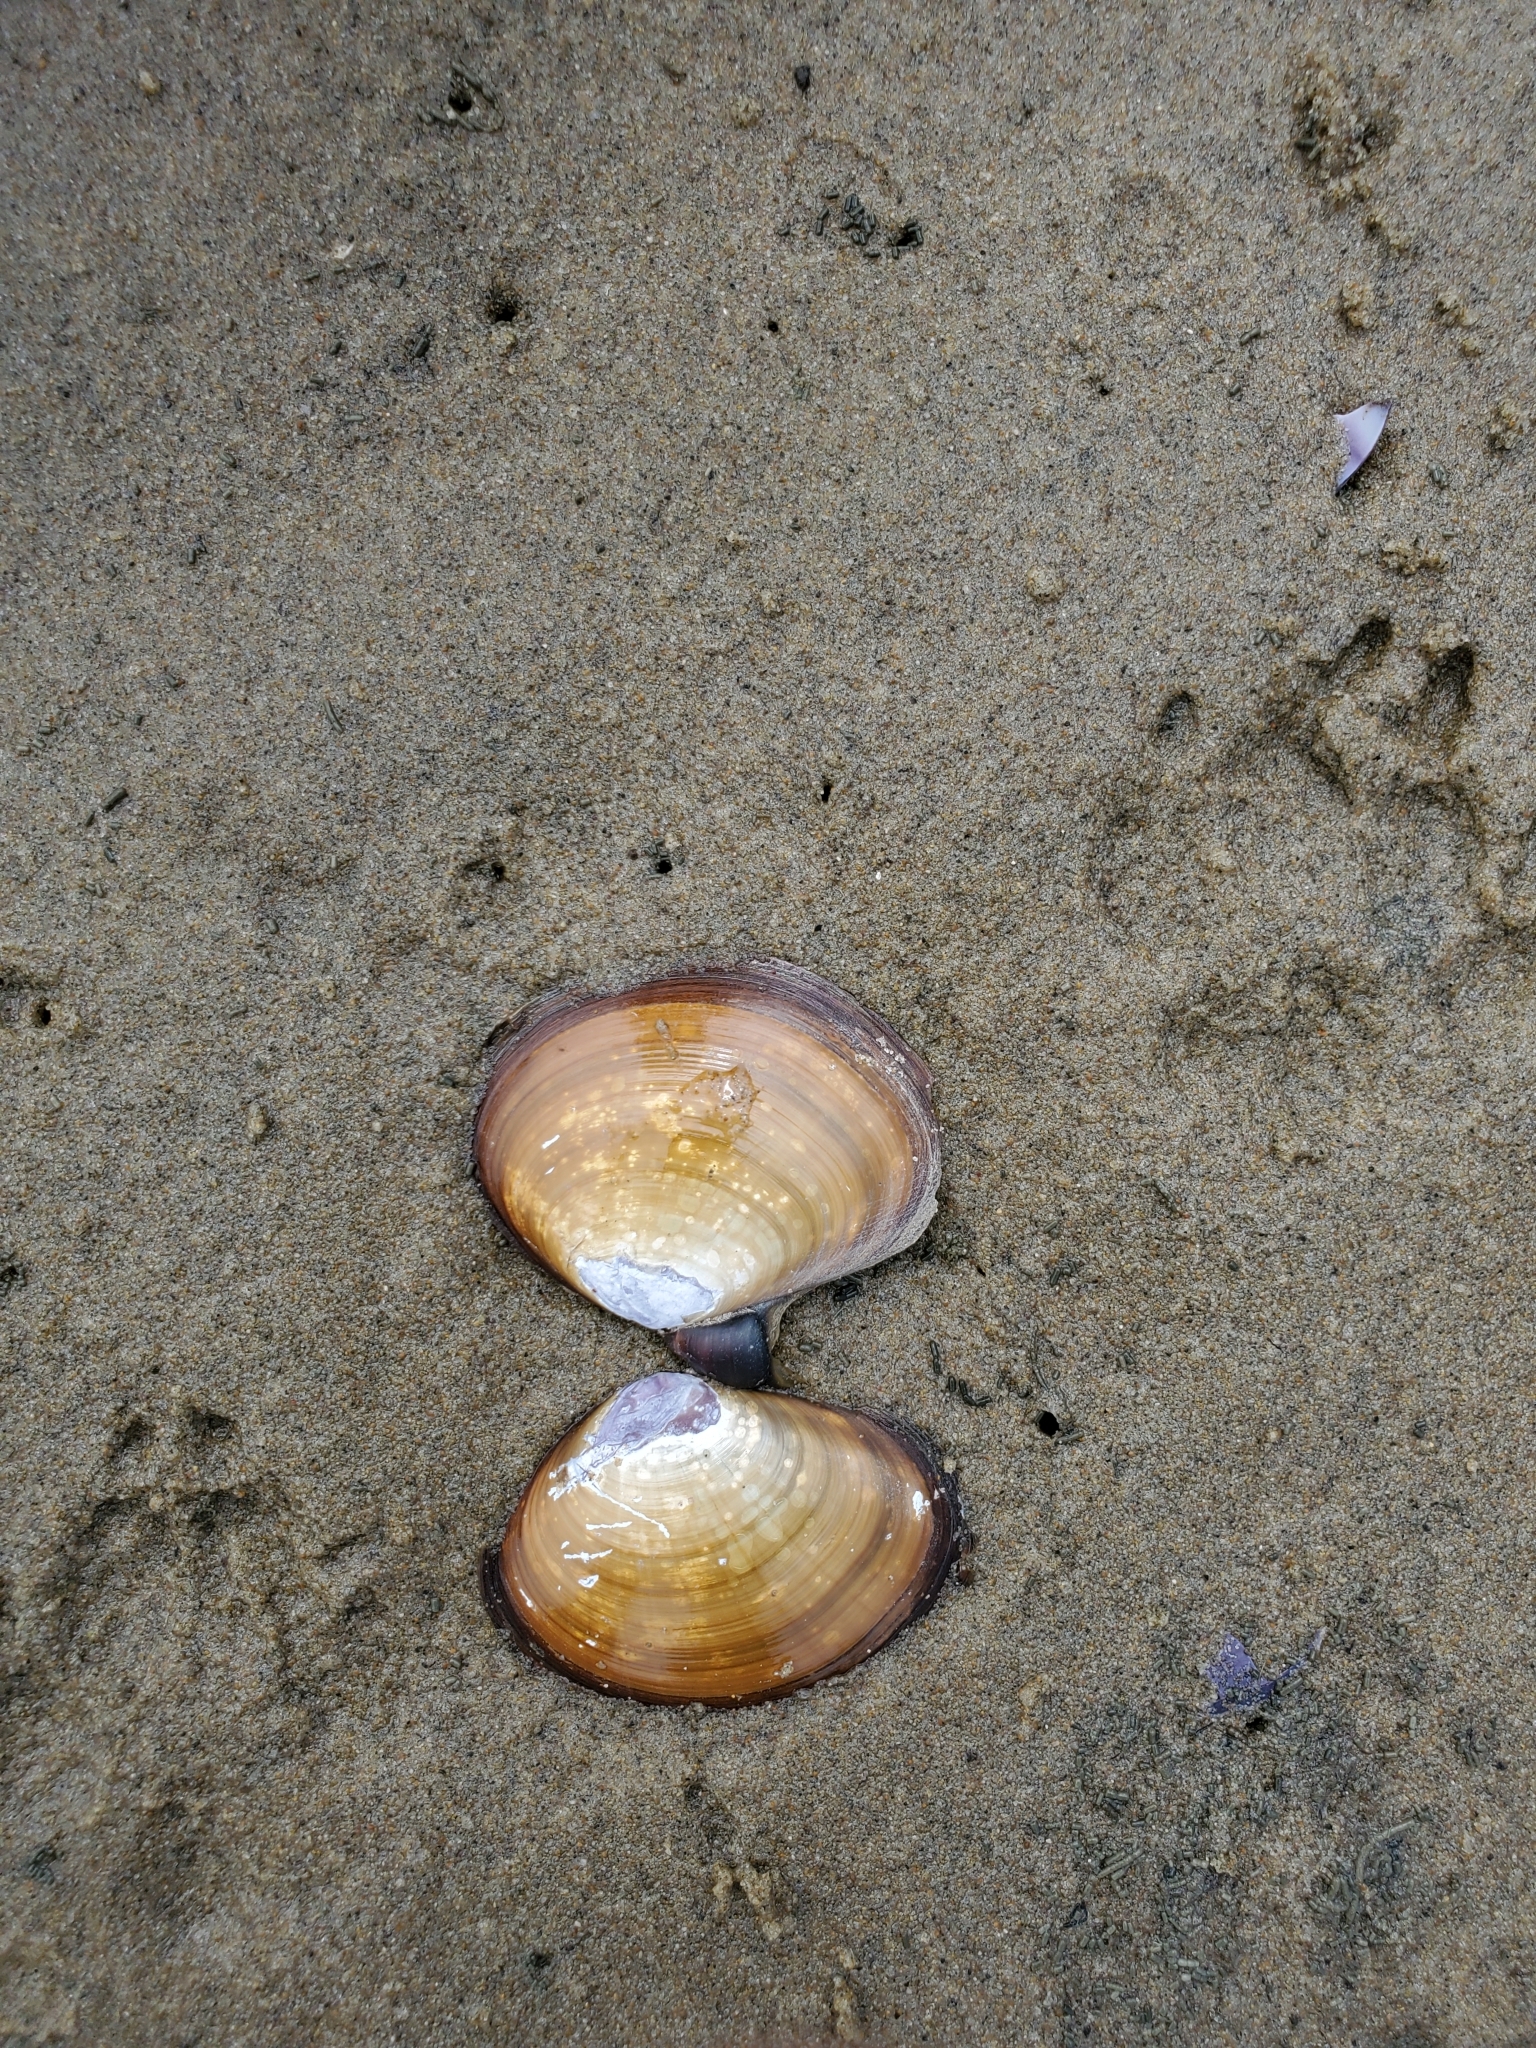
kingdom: Animalia
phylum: Mollusca
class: Bivalvia
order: Cardiida
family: Psammobiidae
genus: Nuttallia
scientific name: Nuttallia obscurata
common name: Purple mahogany-clam
